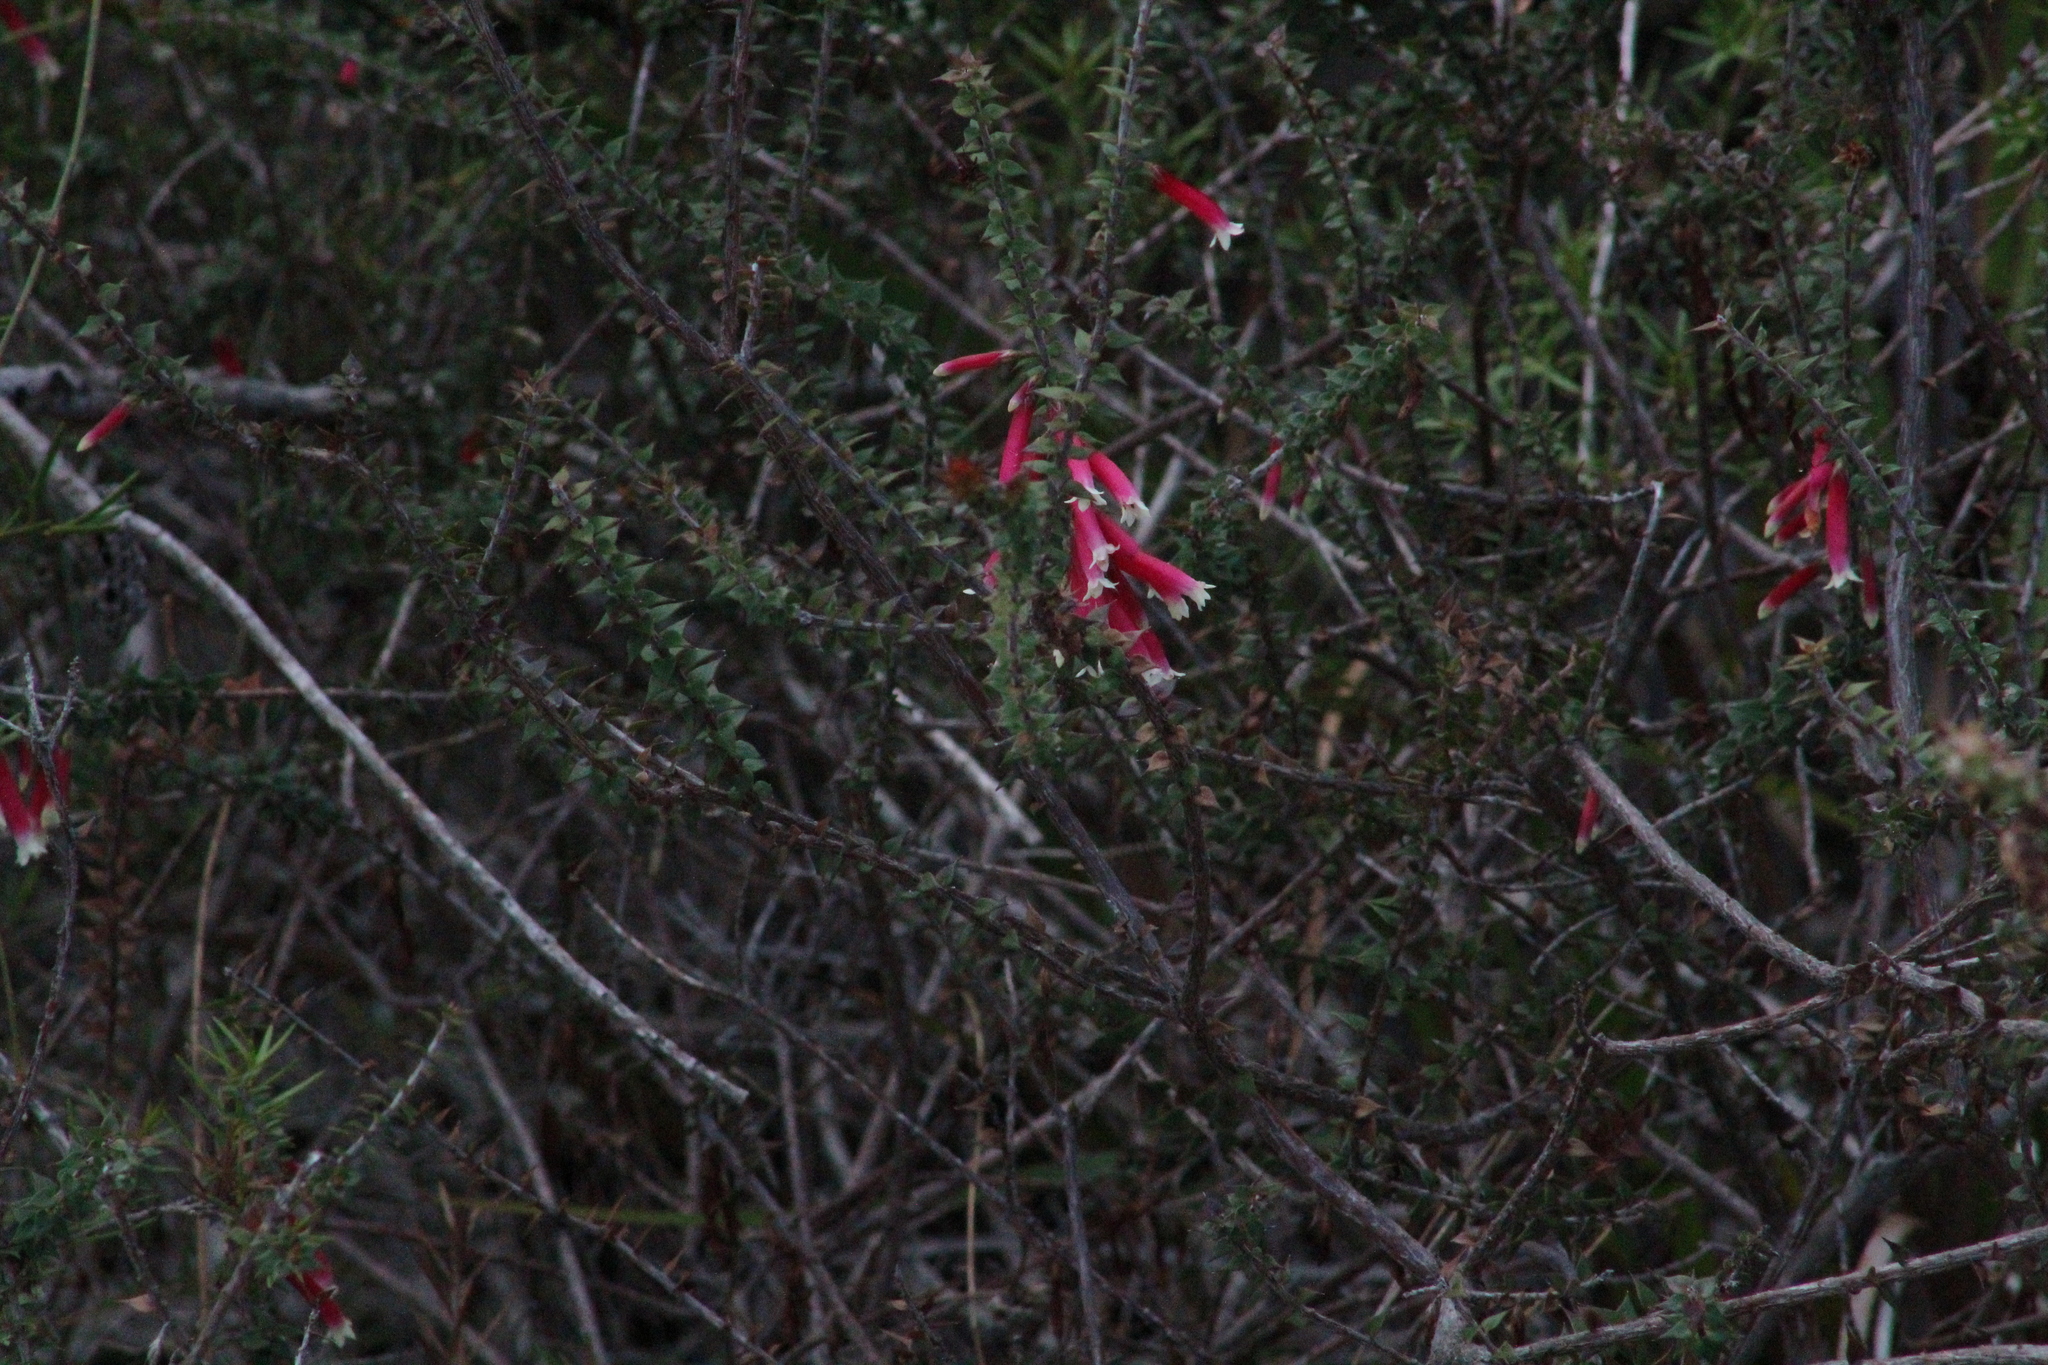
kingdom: Plantae
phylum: Tracheophyta
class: Magnoliopsida
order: Ericales
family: Ericaceae
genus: Epacris
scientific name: Epacris longiflora
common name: Fuchsia-heath
